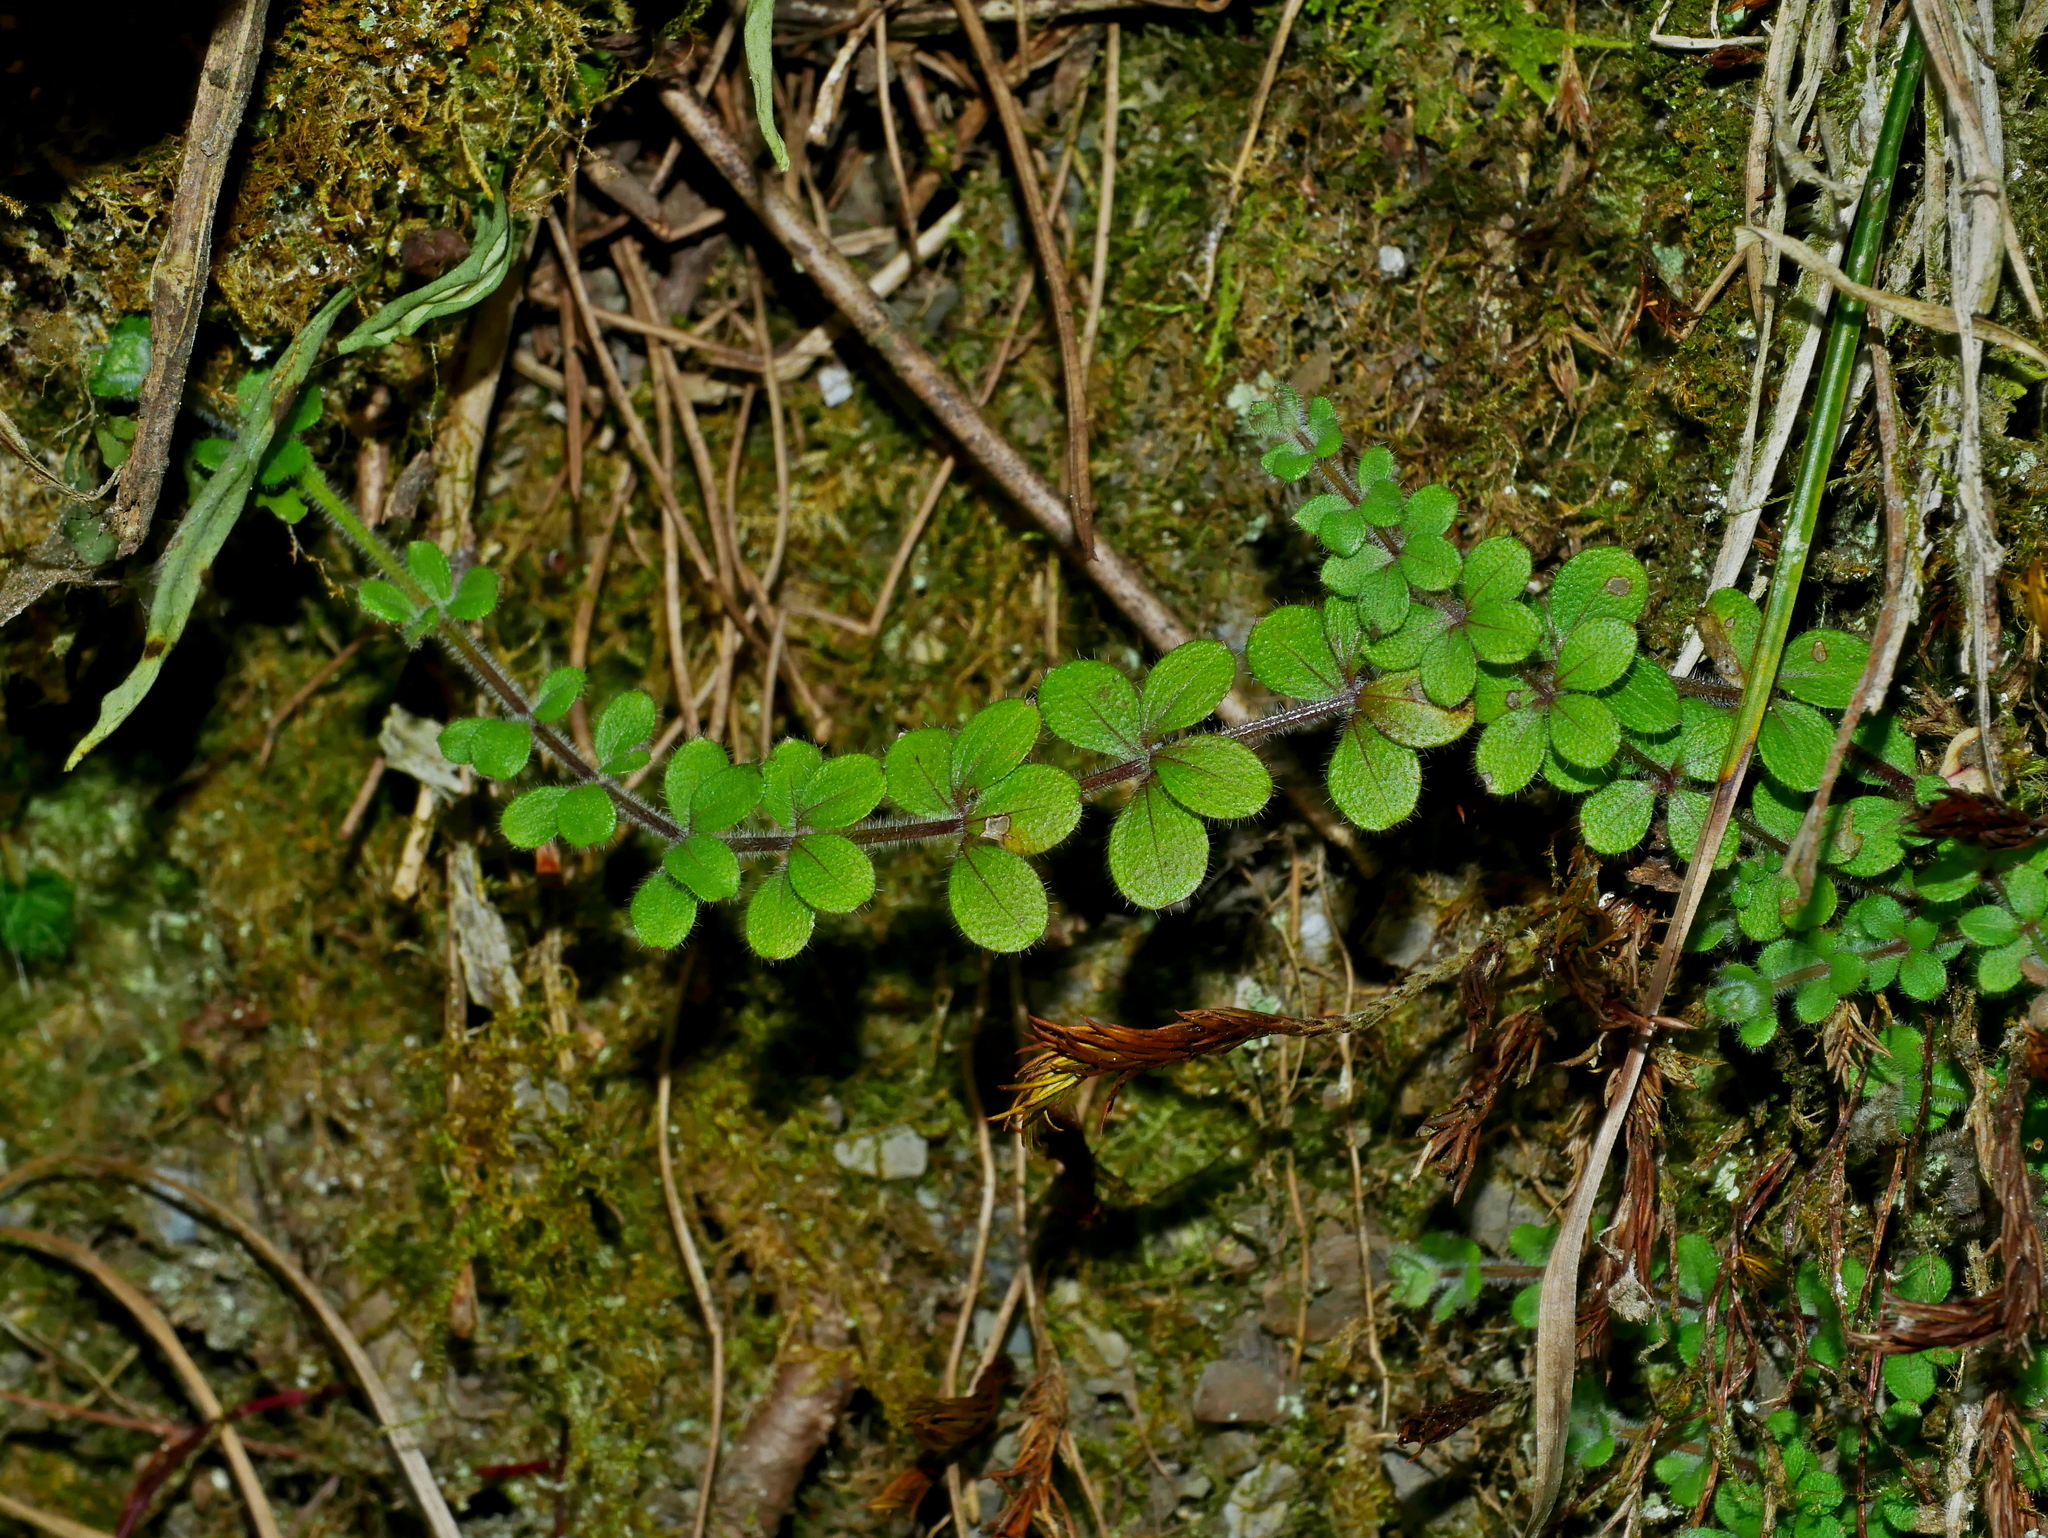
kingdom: Plantae
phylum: Tracheophyta
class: Magnoliopsida
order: Gentianales
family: Rubiaceae
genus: Galium
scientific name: Galium formosense
